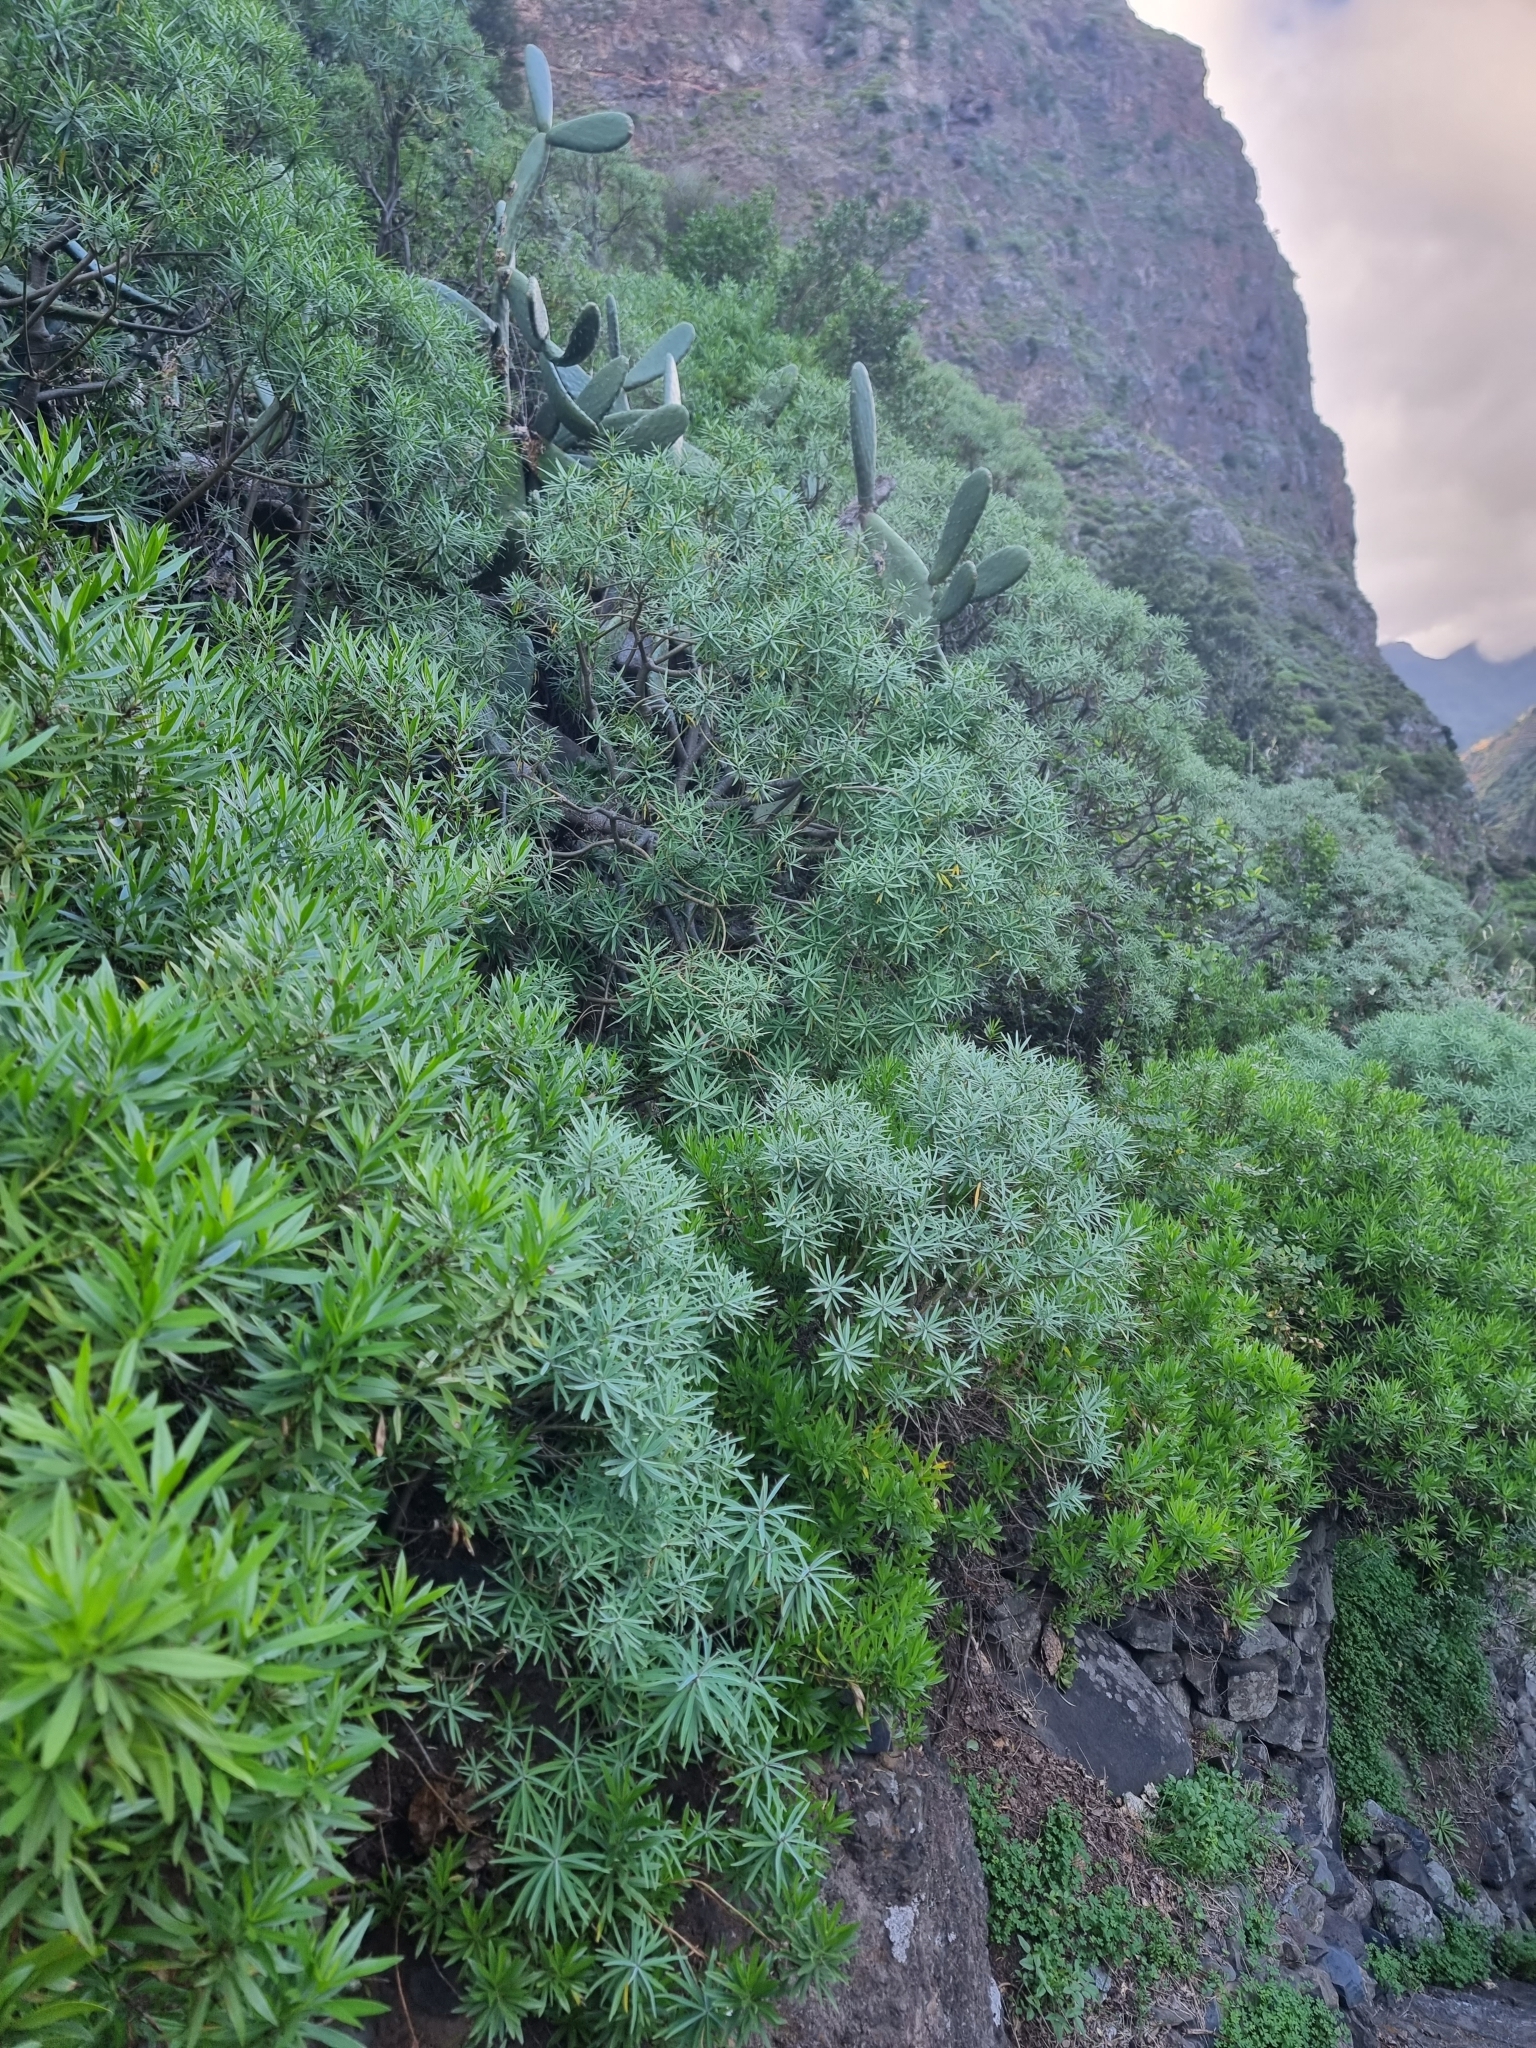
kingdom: Plantae
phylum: Tracheophyta
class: Magnoliopsida
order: Malpighiales
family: Euphorbiaceae
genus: Euphorbia
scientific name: Euphorbia piscatoria
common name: Fish-stunning spurge
